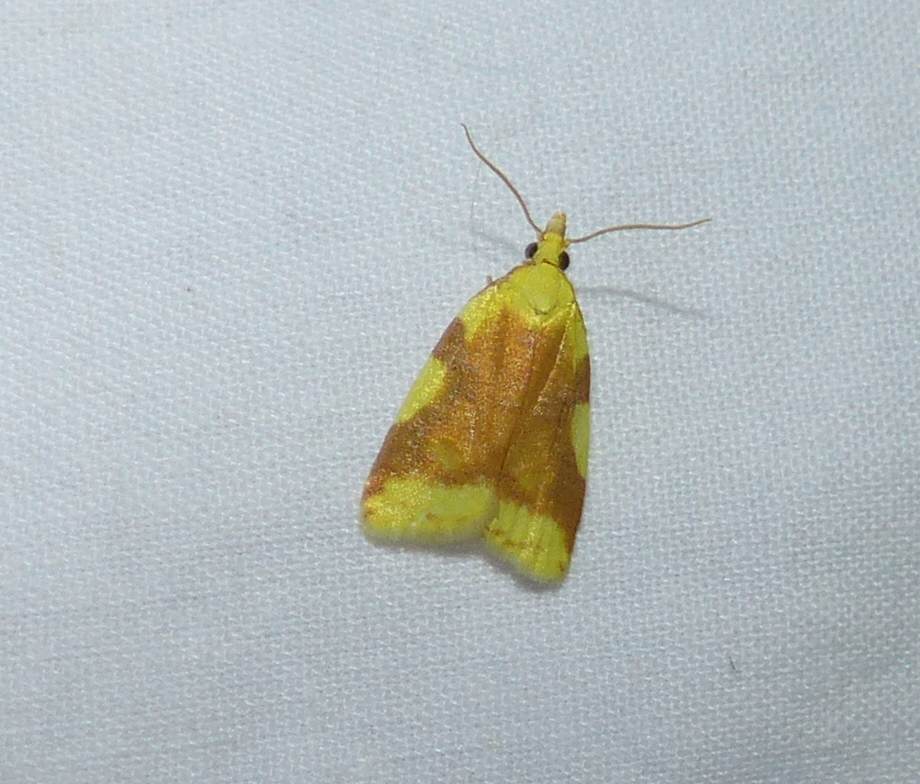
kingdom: Animalia
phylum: Arthropoda
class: Insecta
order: Lepidoptera
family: Tortricidae
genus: Cenopis
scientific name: Cenopis niveana
